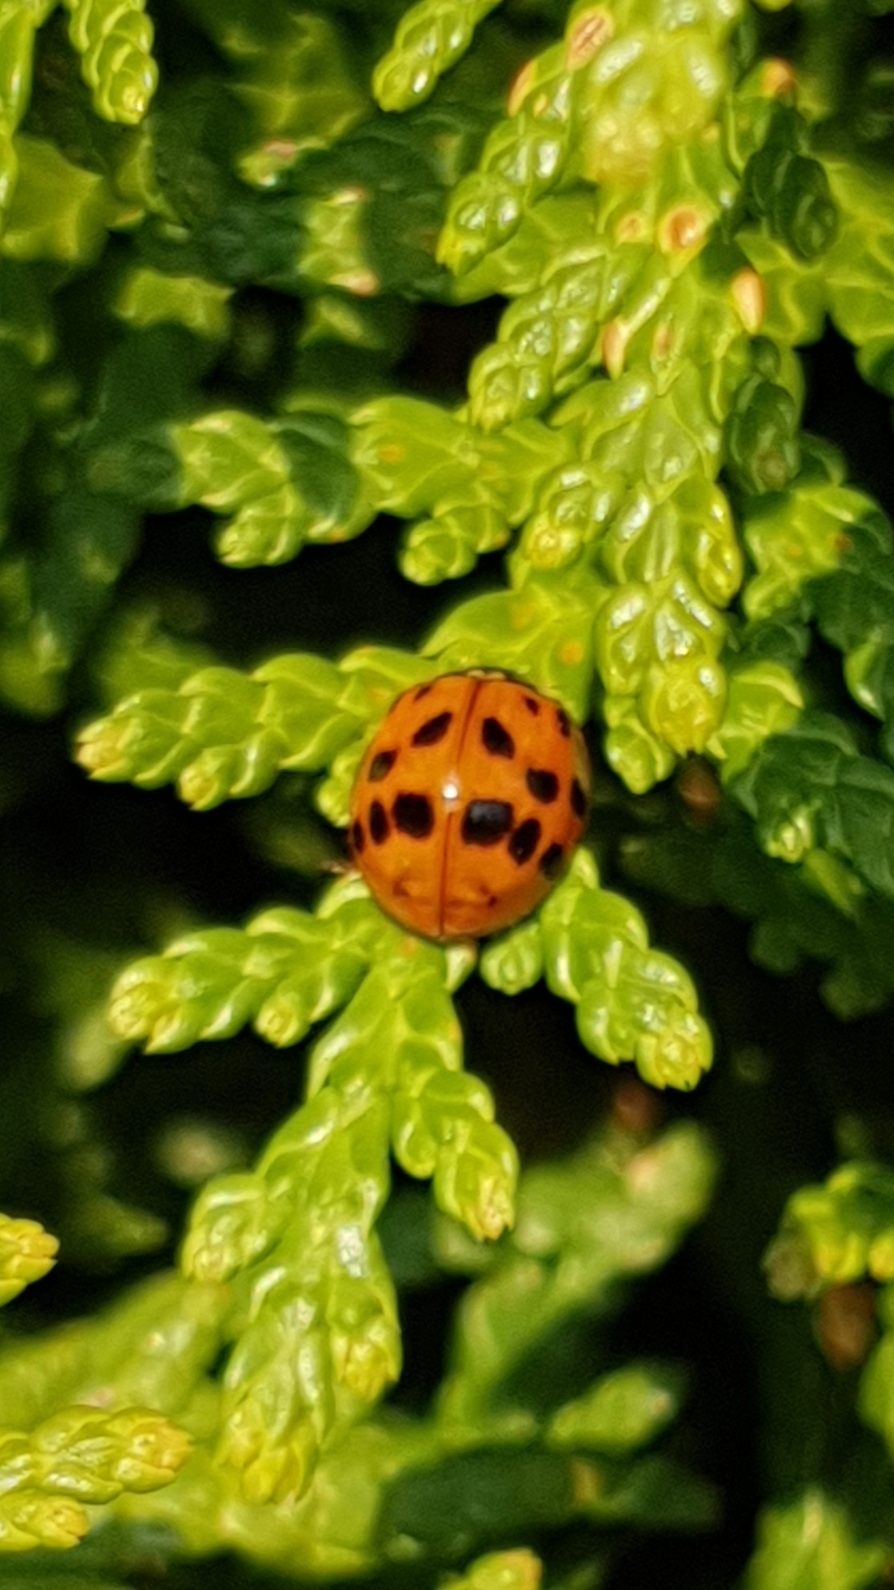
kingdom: Animalia
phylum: Arthropoda
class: Insecta
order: Coleoptera
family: Coccinellidae
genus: Harmonia
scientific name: Harmonia axyridis
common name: Harlequin ladybird
